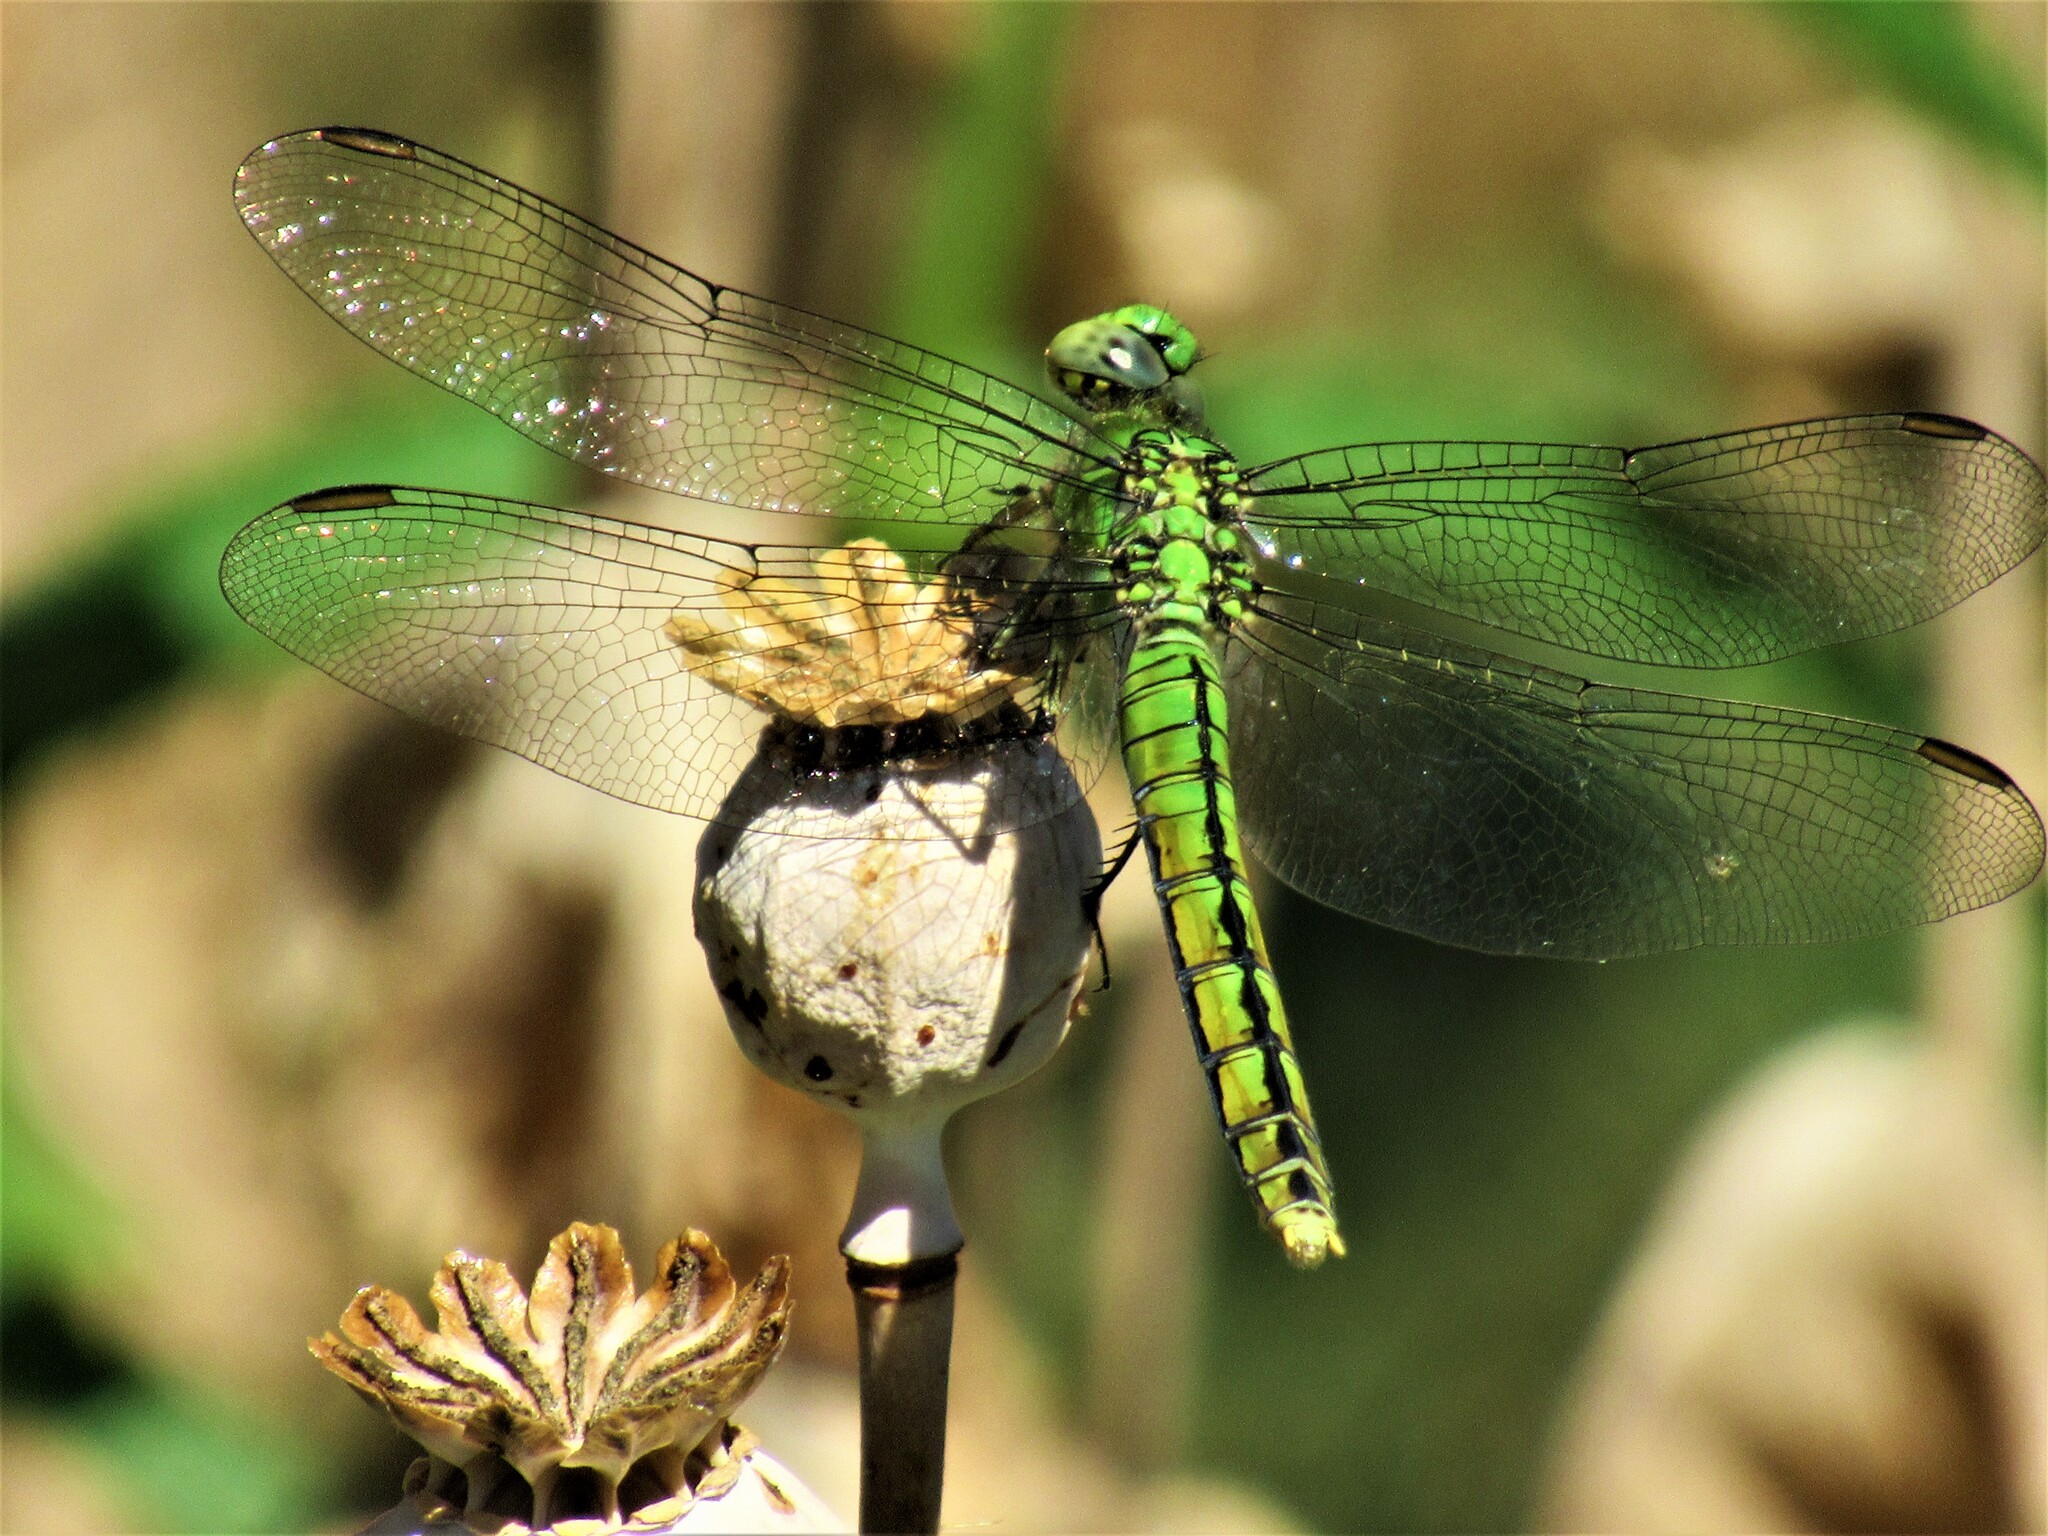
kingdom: Animalia
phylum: Arthropoda
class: Insecta
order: Odonata
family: Libellulidae
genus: Erythemis
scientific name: Erythemis collocata
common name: Western pondhawk
